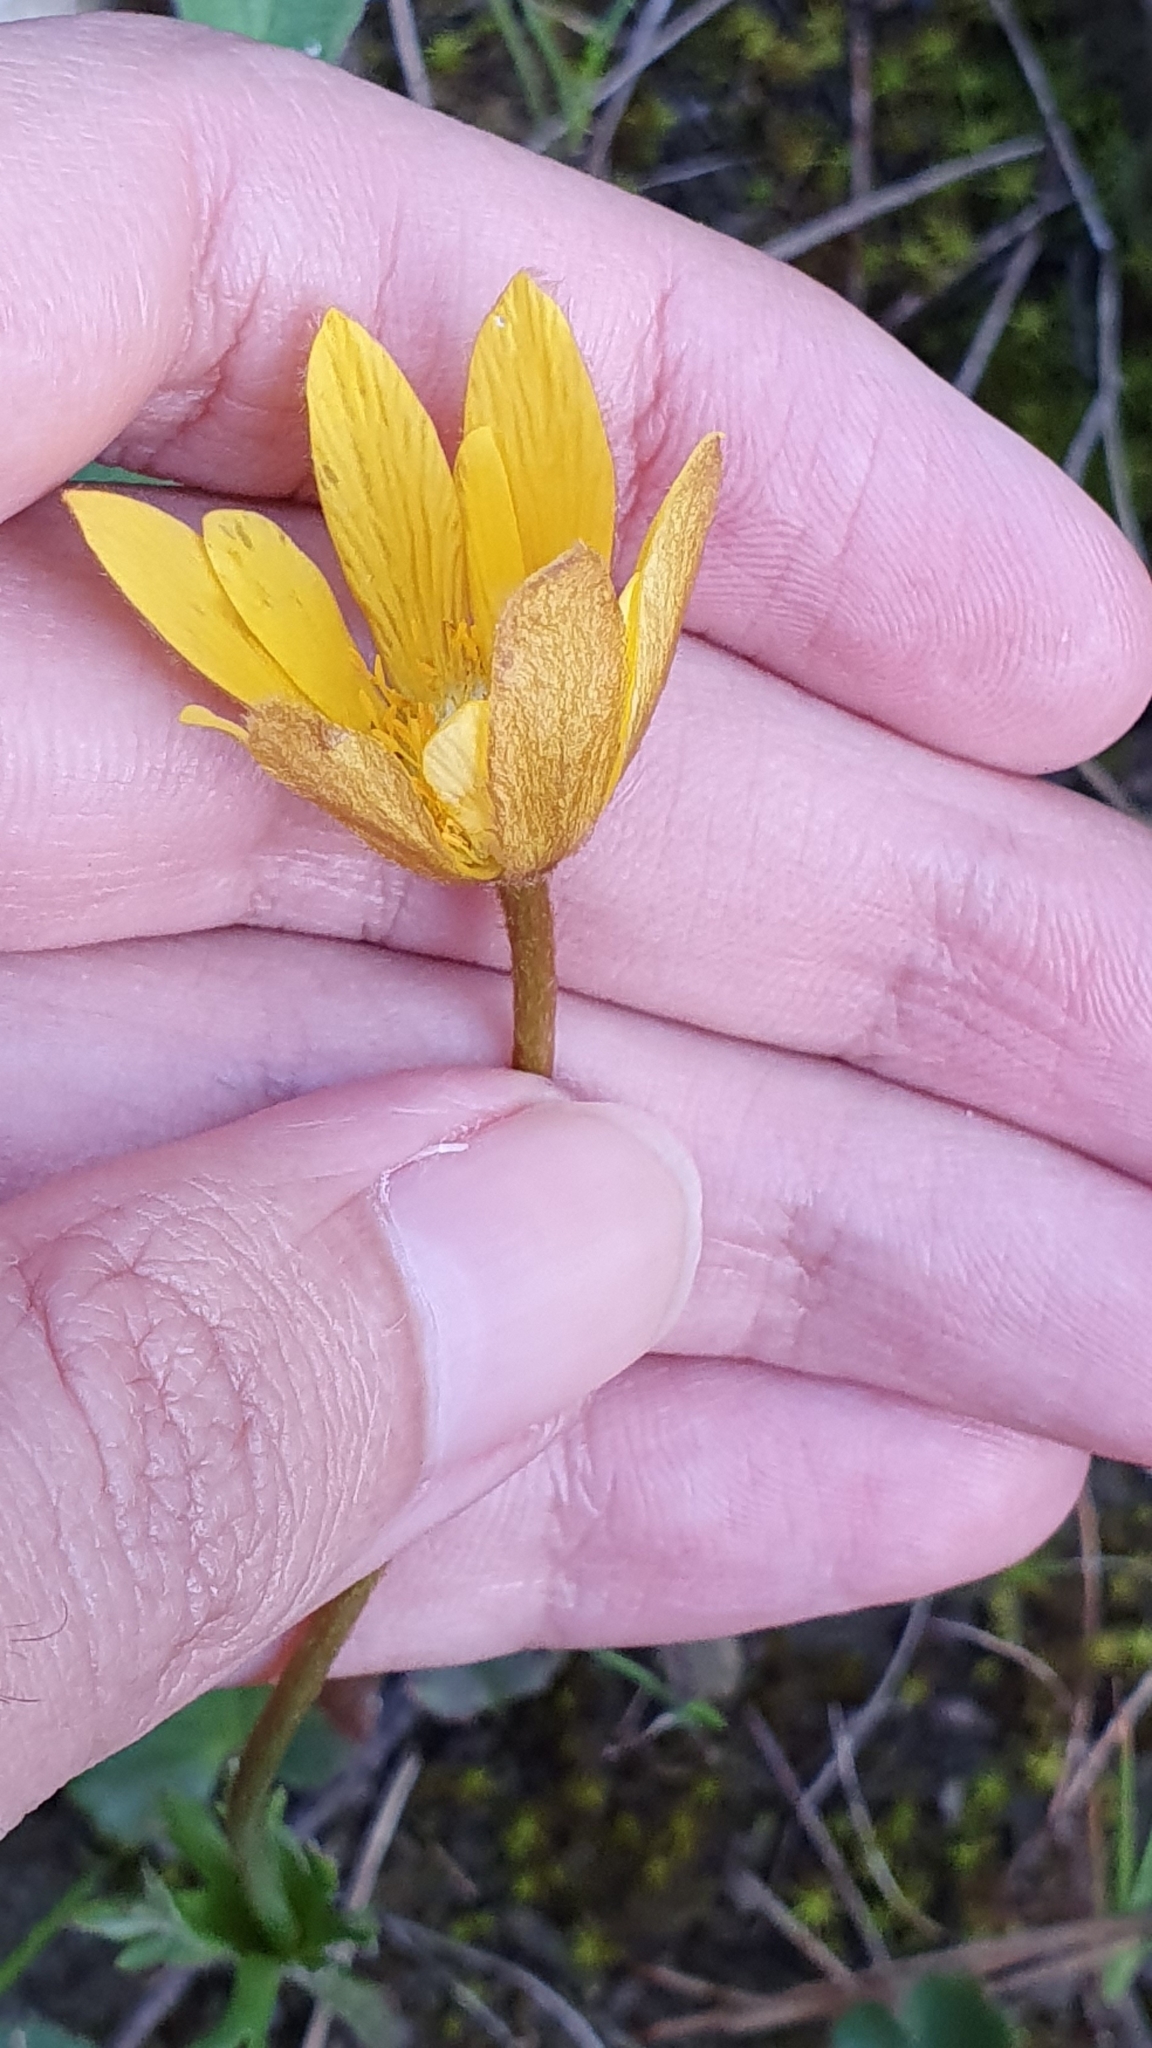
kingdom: Plantae
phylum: Tracheophyta
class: Magnoliopsida
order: Ranunculales
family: Ranunculaceae
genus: Anemone
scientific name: Anemone palmata
